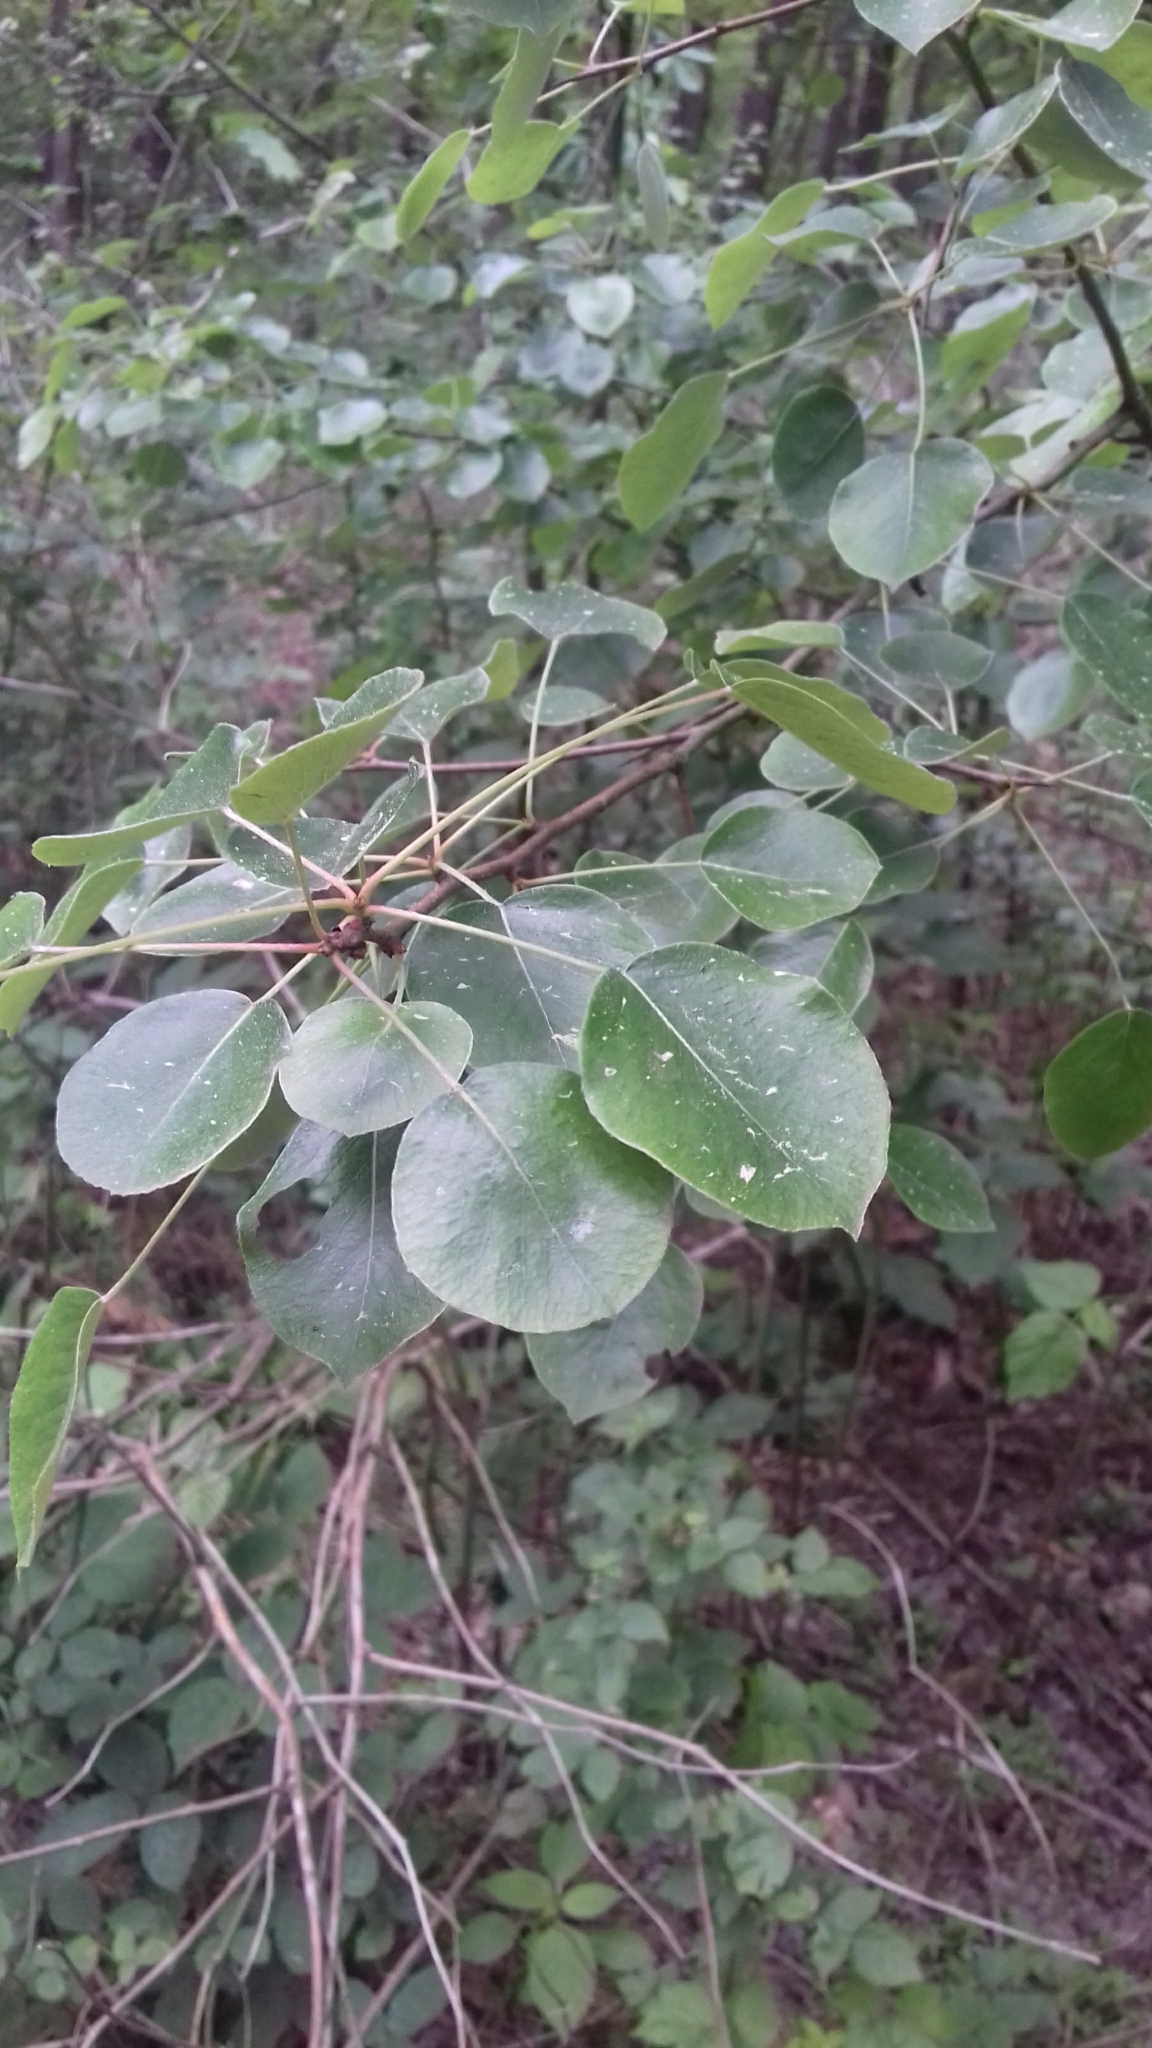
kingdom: Plantae
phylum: Tracheophyta
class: Magnoliopsida
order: Rosales
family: Rosaceae
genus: Malus
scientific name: Malus sylvestris
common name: Crab apple
